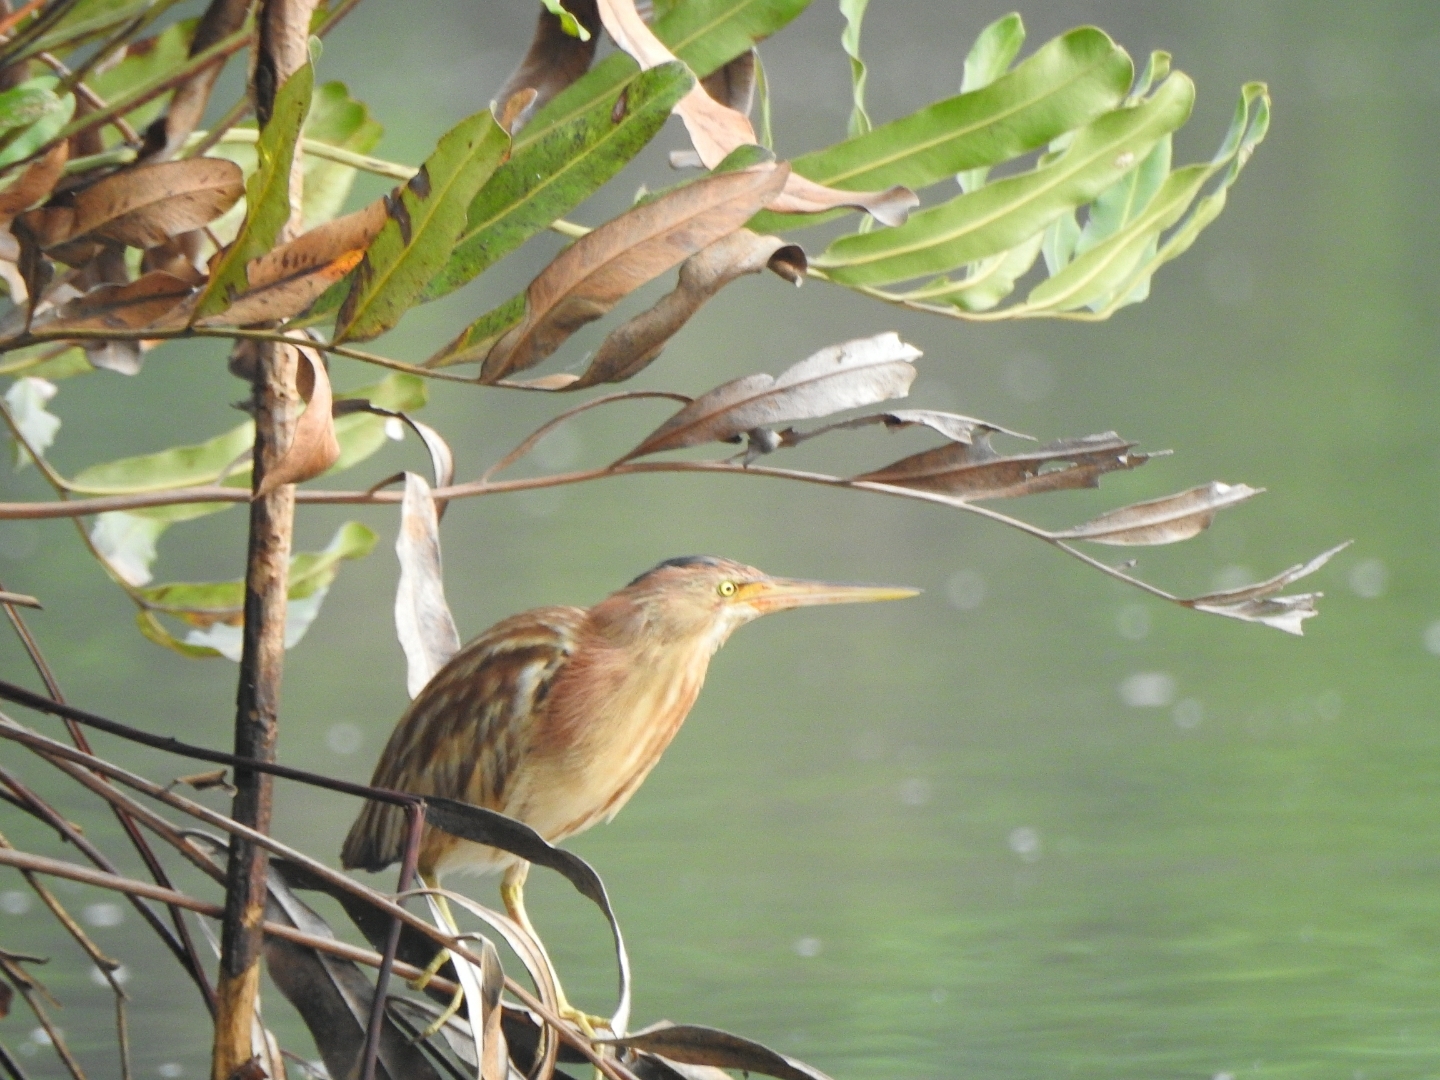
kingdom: Animalia
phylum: Chordata
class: Aves
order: Pelecaniformes
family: Ardeidae
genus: Ixobrychus
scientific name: Ixobrychus sinensis
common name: Yellow bittern
